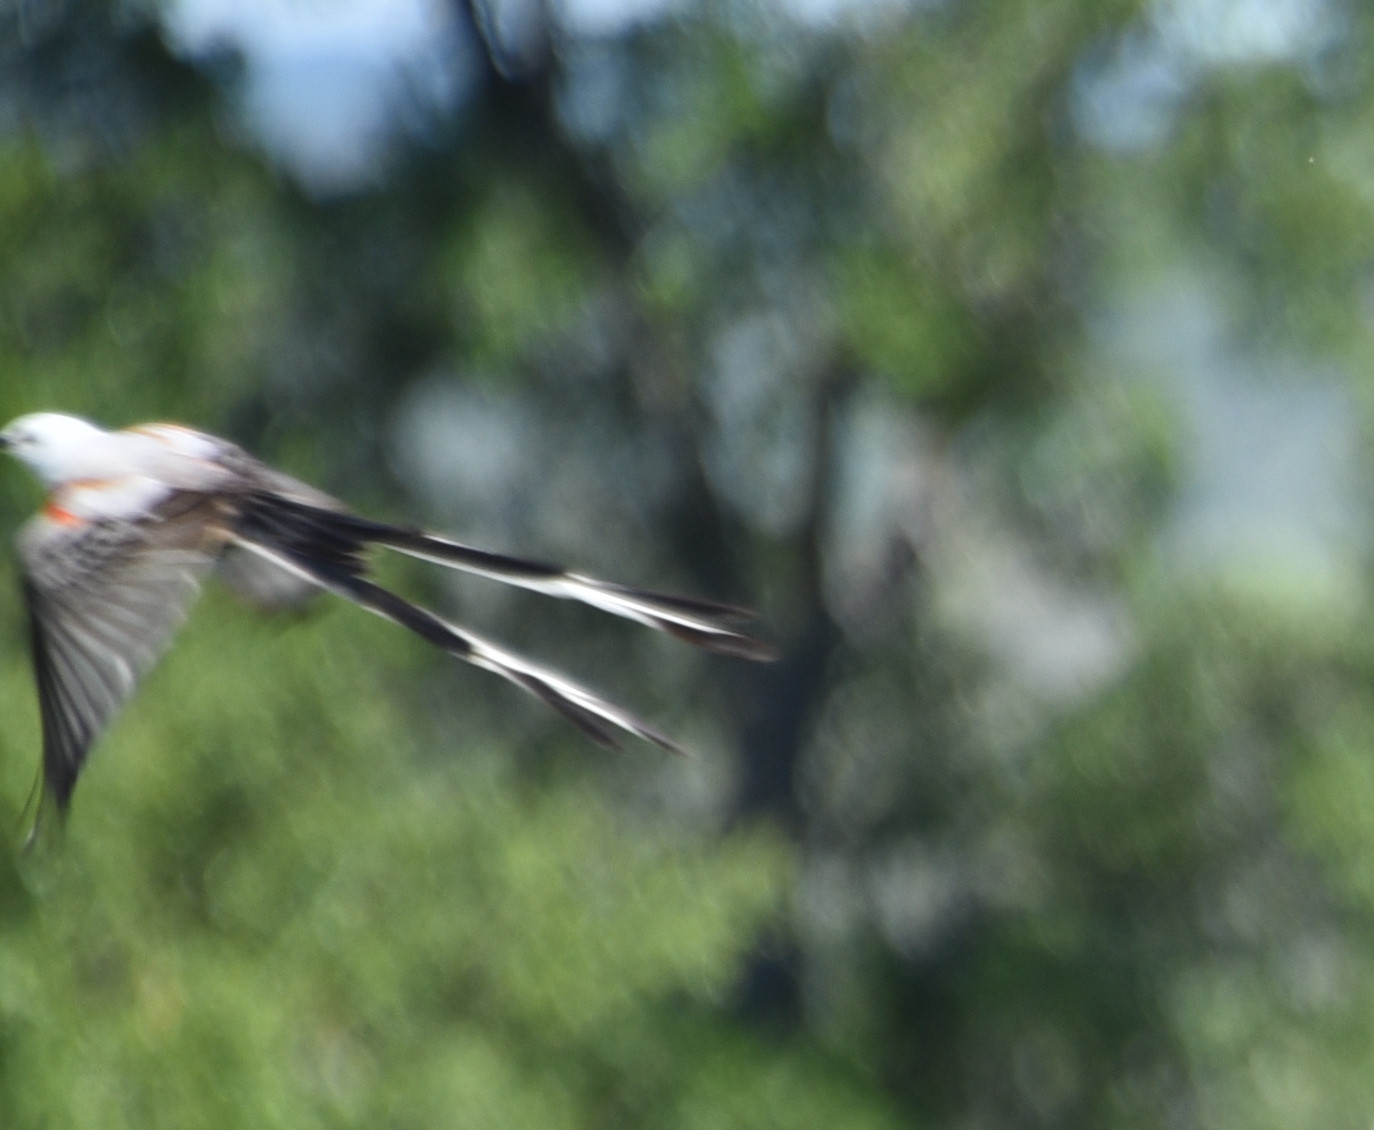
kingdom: Animalia
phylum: Chordata
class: Aves
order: Passeriformes
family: Tyrannidae
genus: Tyrannus
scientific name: Tyrannus forficatus
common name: Scissor-tailed flycatcher
